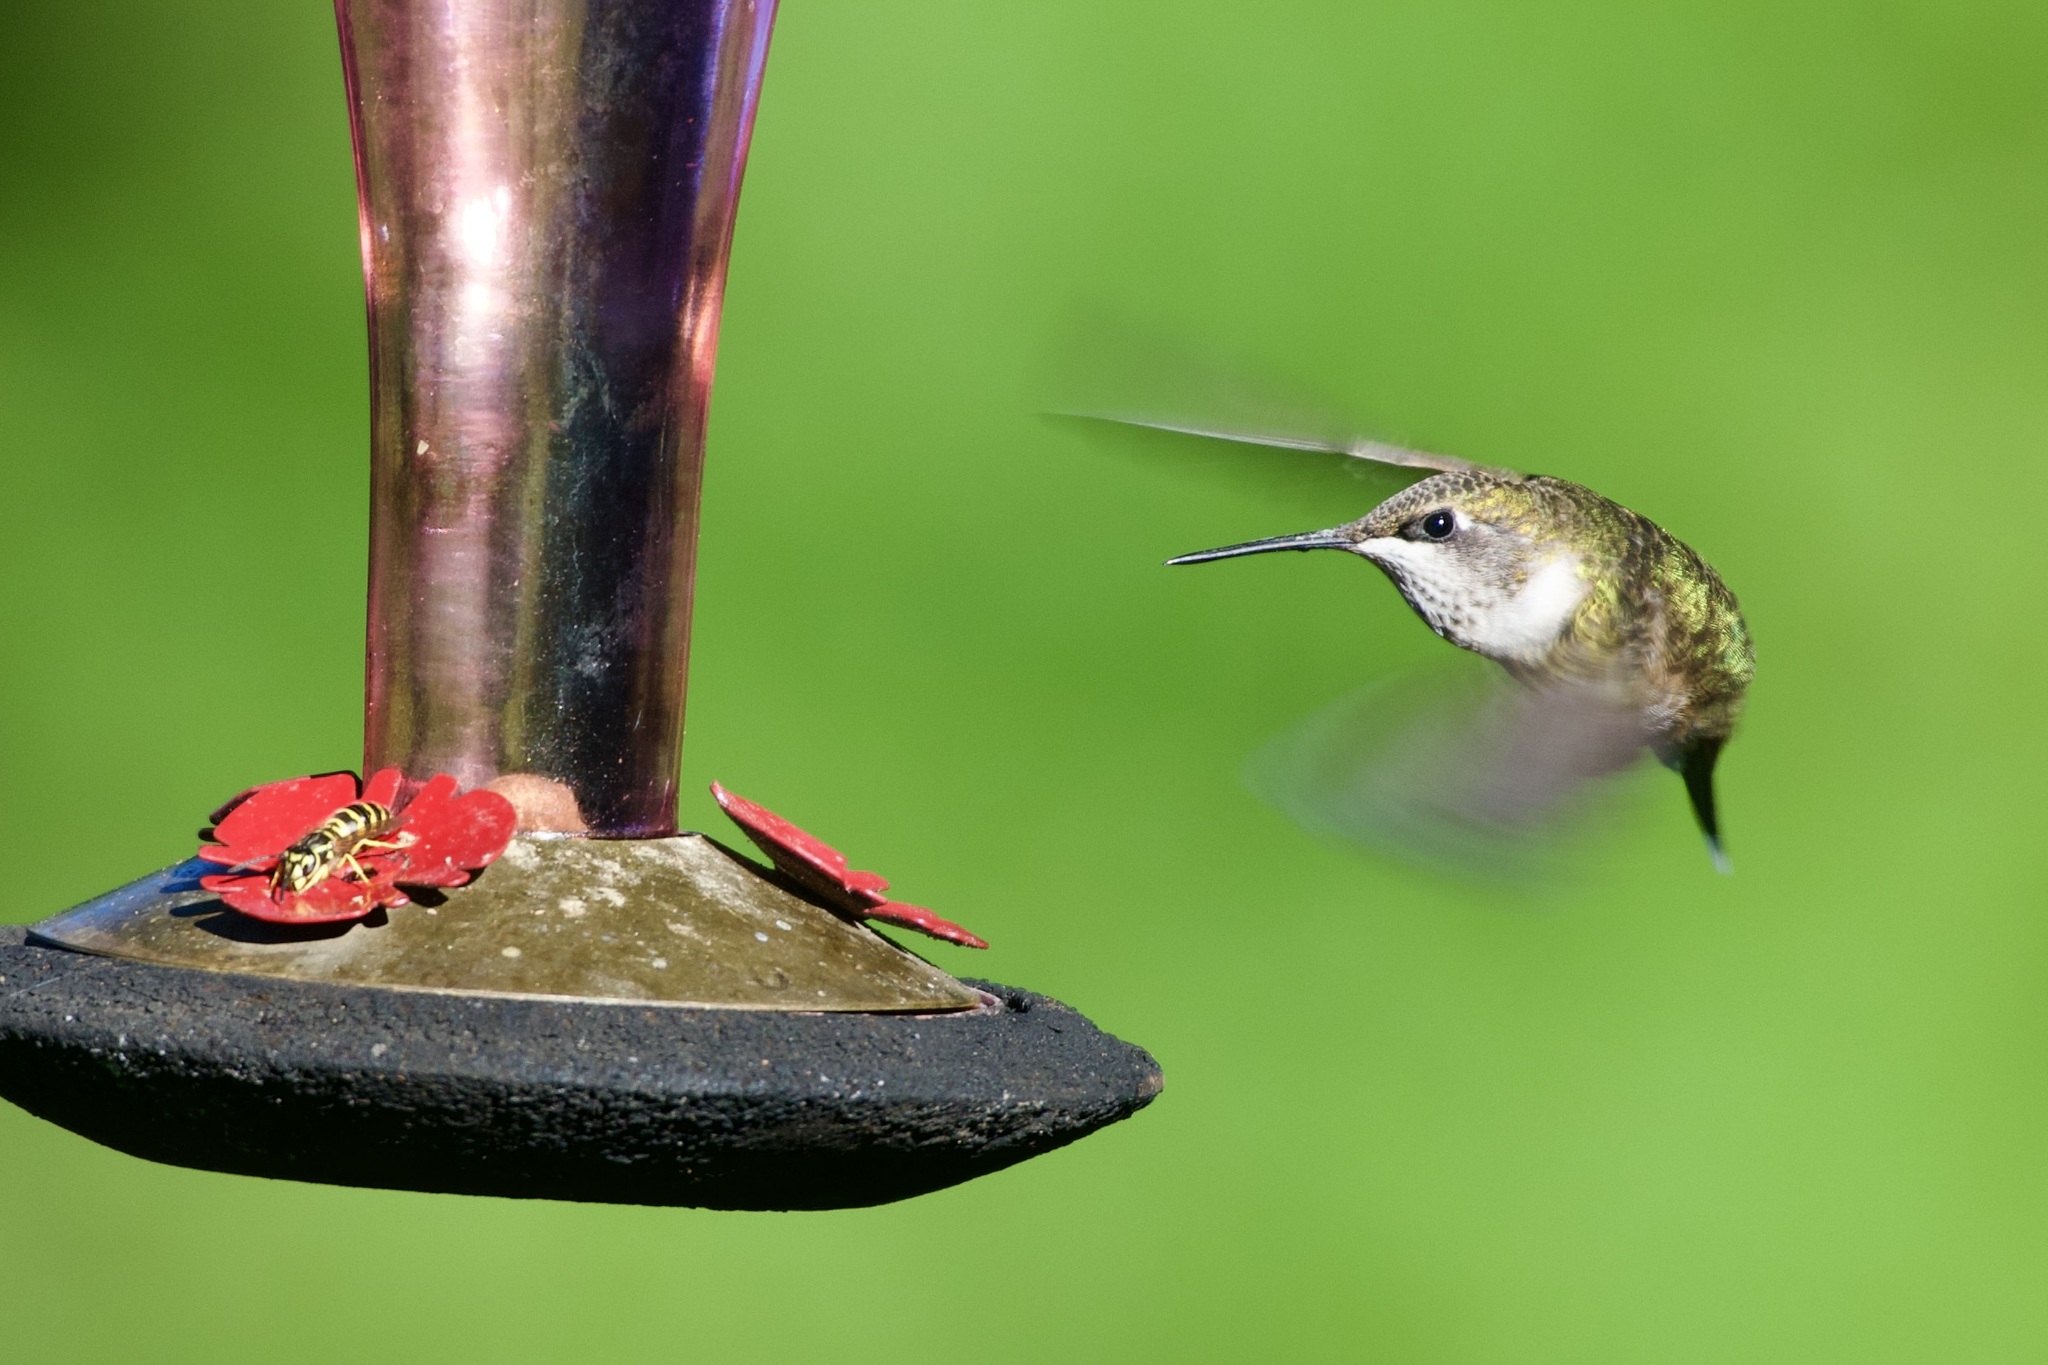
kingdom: Animalia
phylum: Chordata
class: Aves
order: Apodiformes
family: Trochilidae
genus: Archilochus
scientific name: Archilochus colubris
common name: Ruby-throated hummingbird
